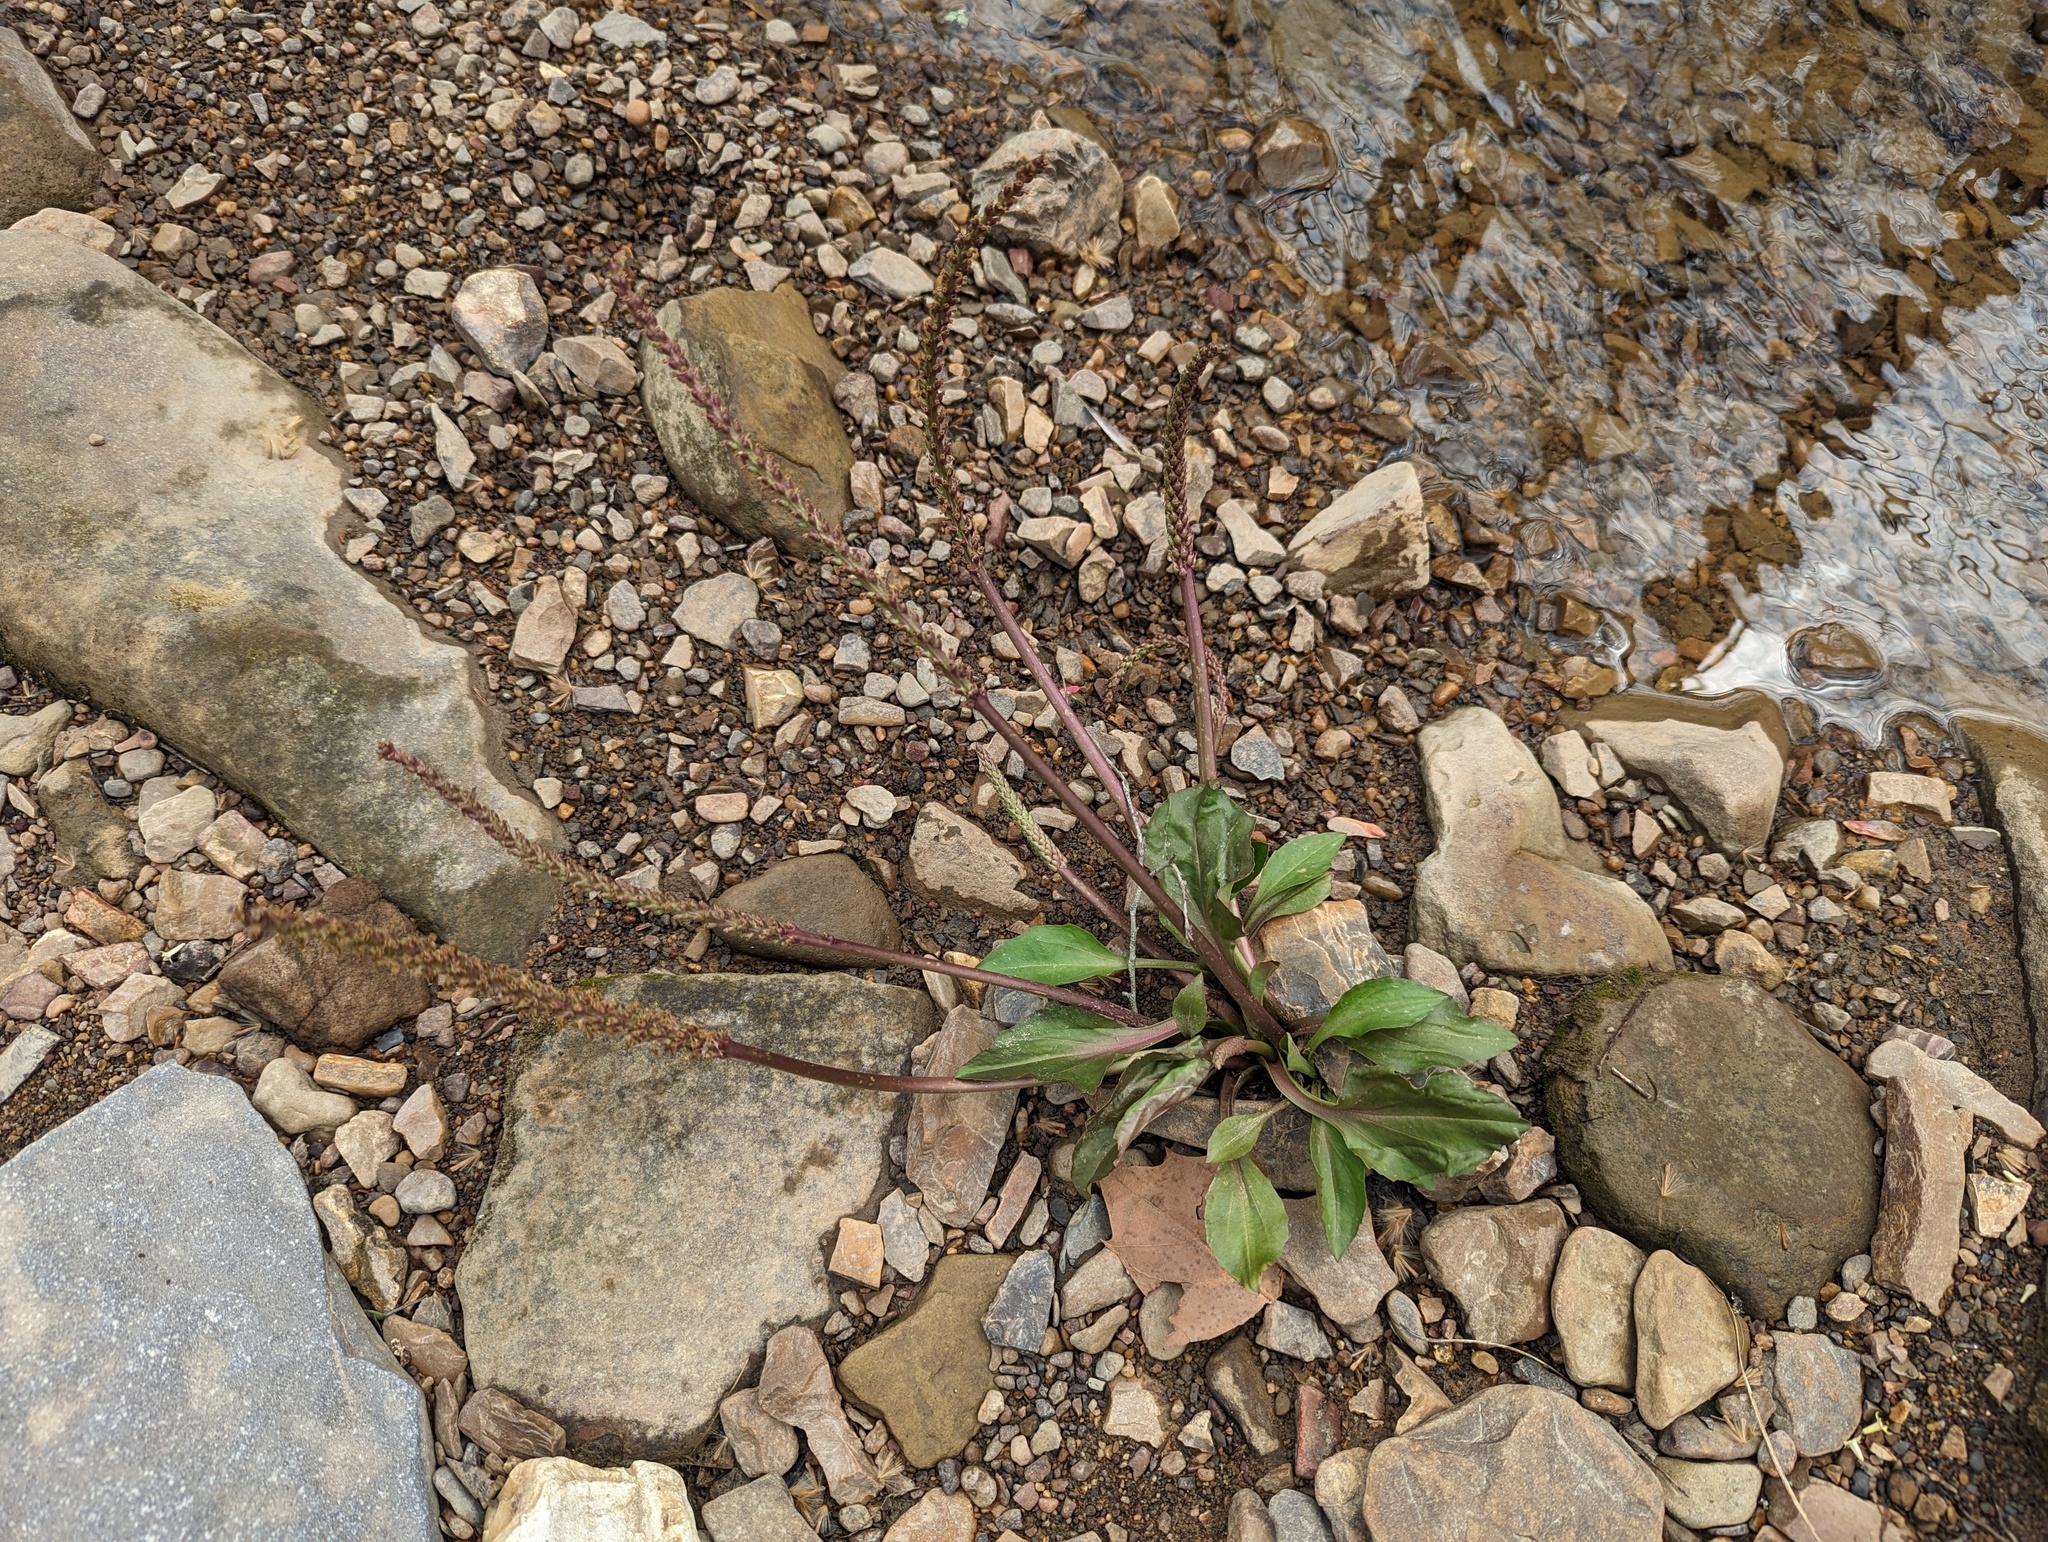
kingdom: Plantae
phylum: Tracheophyta
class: Magnoliopsida
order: Lamiales
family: Plantaginaceae
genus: Plantago
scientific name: Plantago cordata
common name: Kingroot
